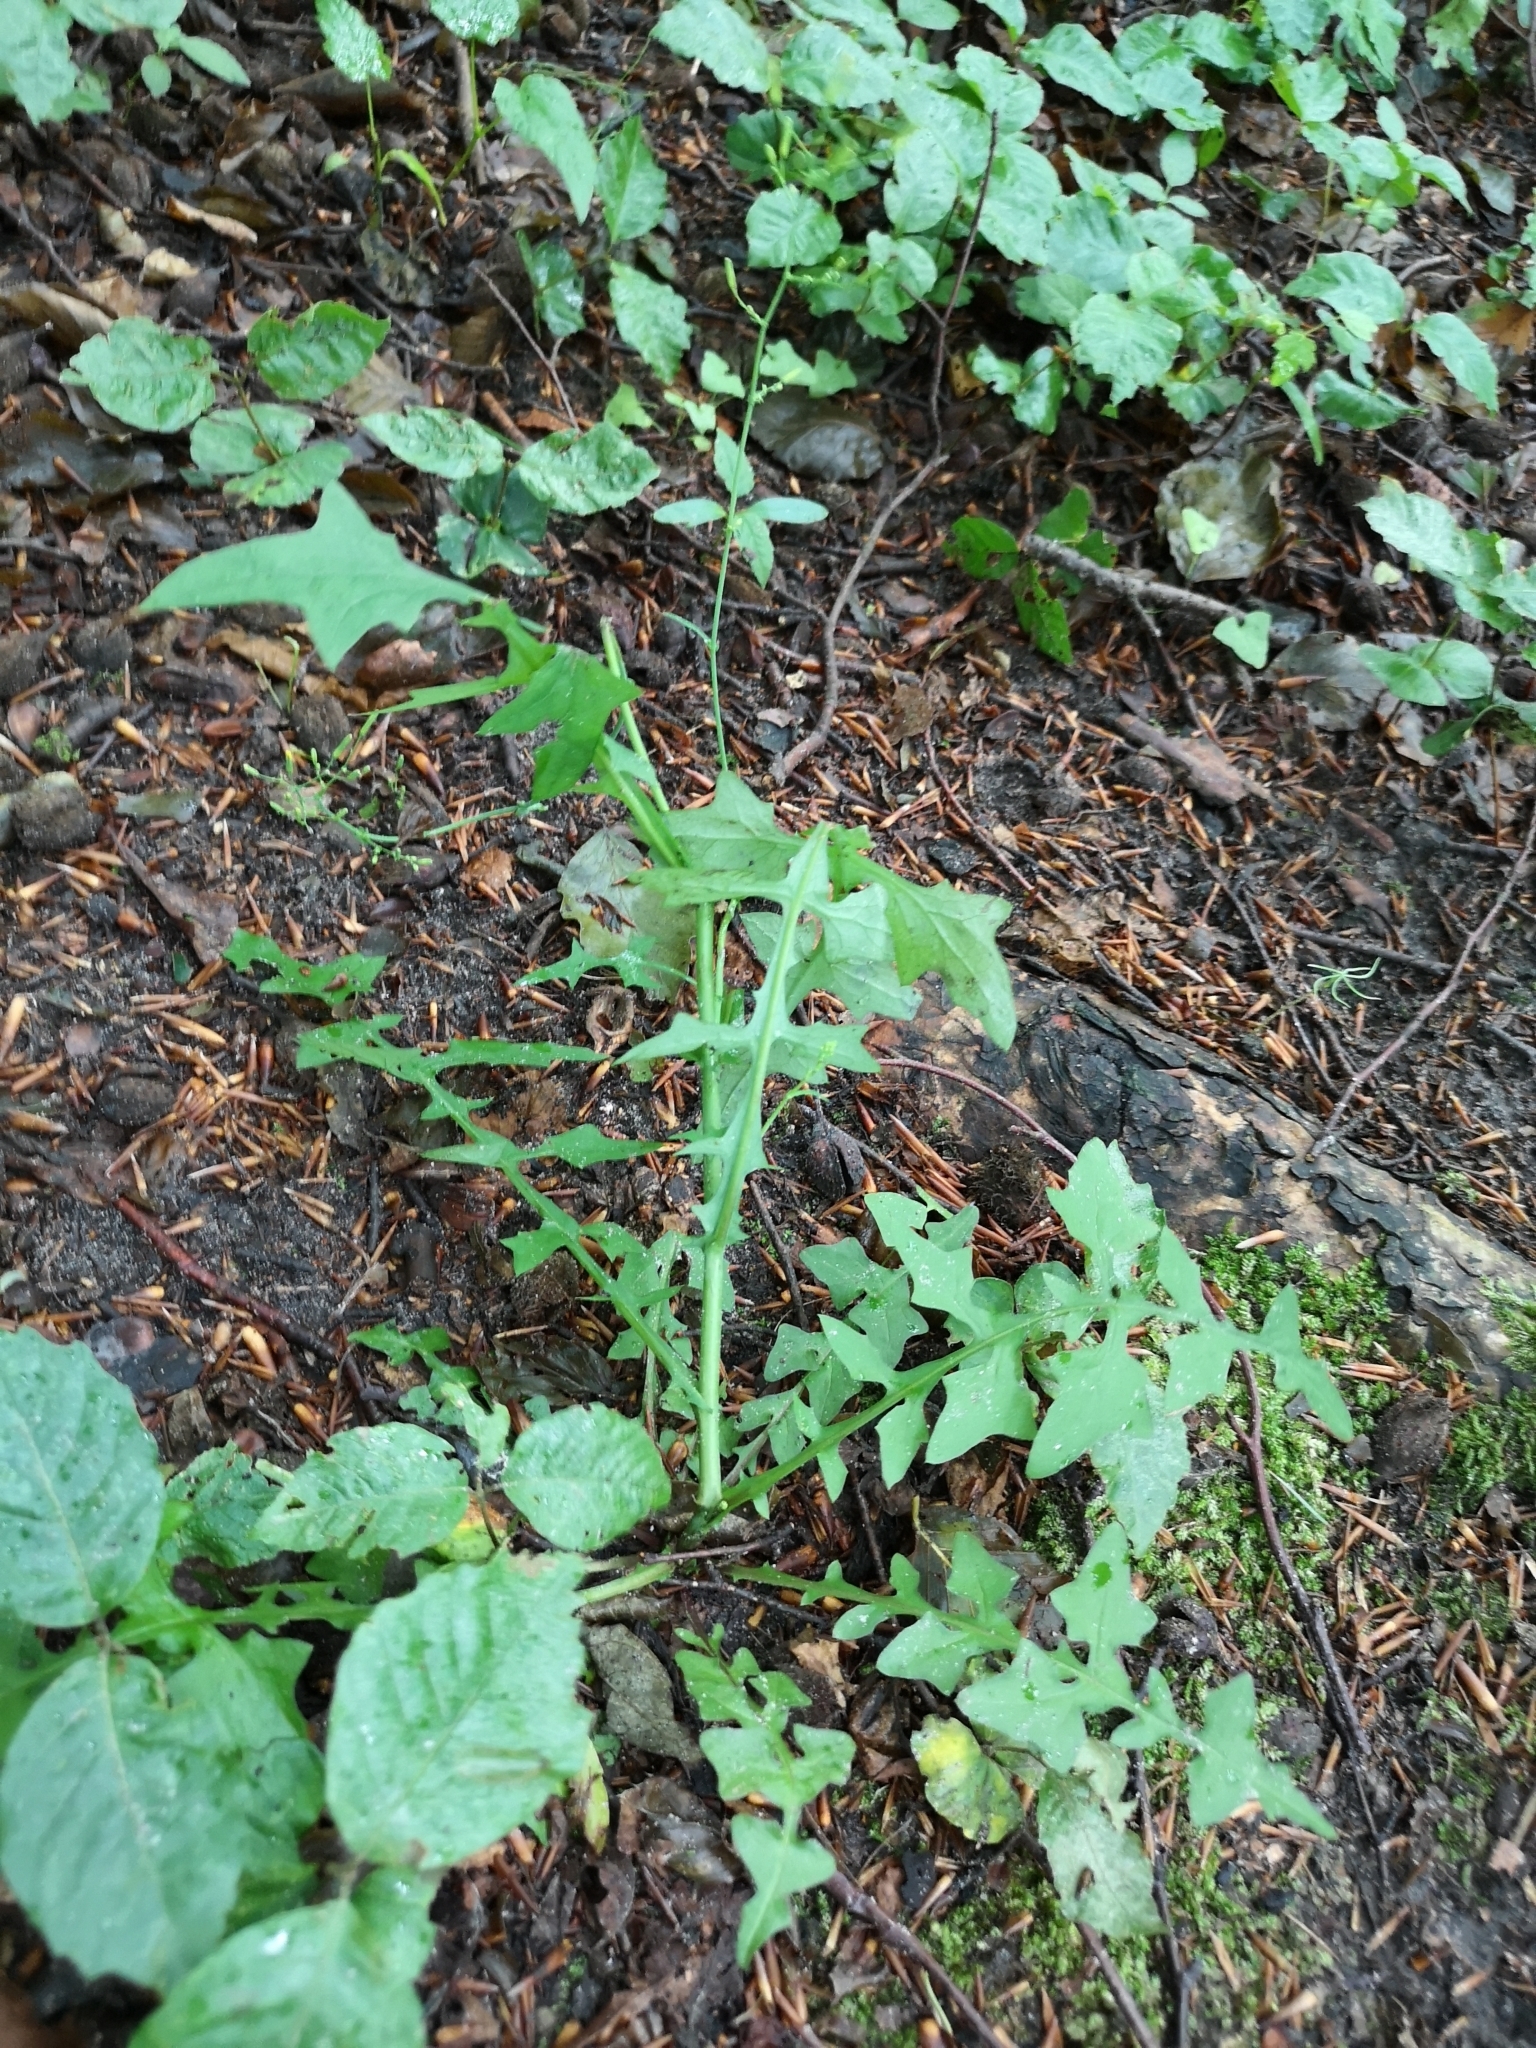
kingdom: Plantae
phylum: Tracheophyta
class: Magnoliopsida
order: Asterales
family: Asteraceae
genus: Mycelis
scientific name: Mycelis muralis
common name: Wall lettuce
